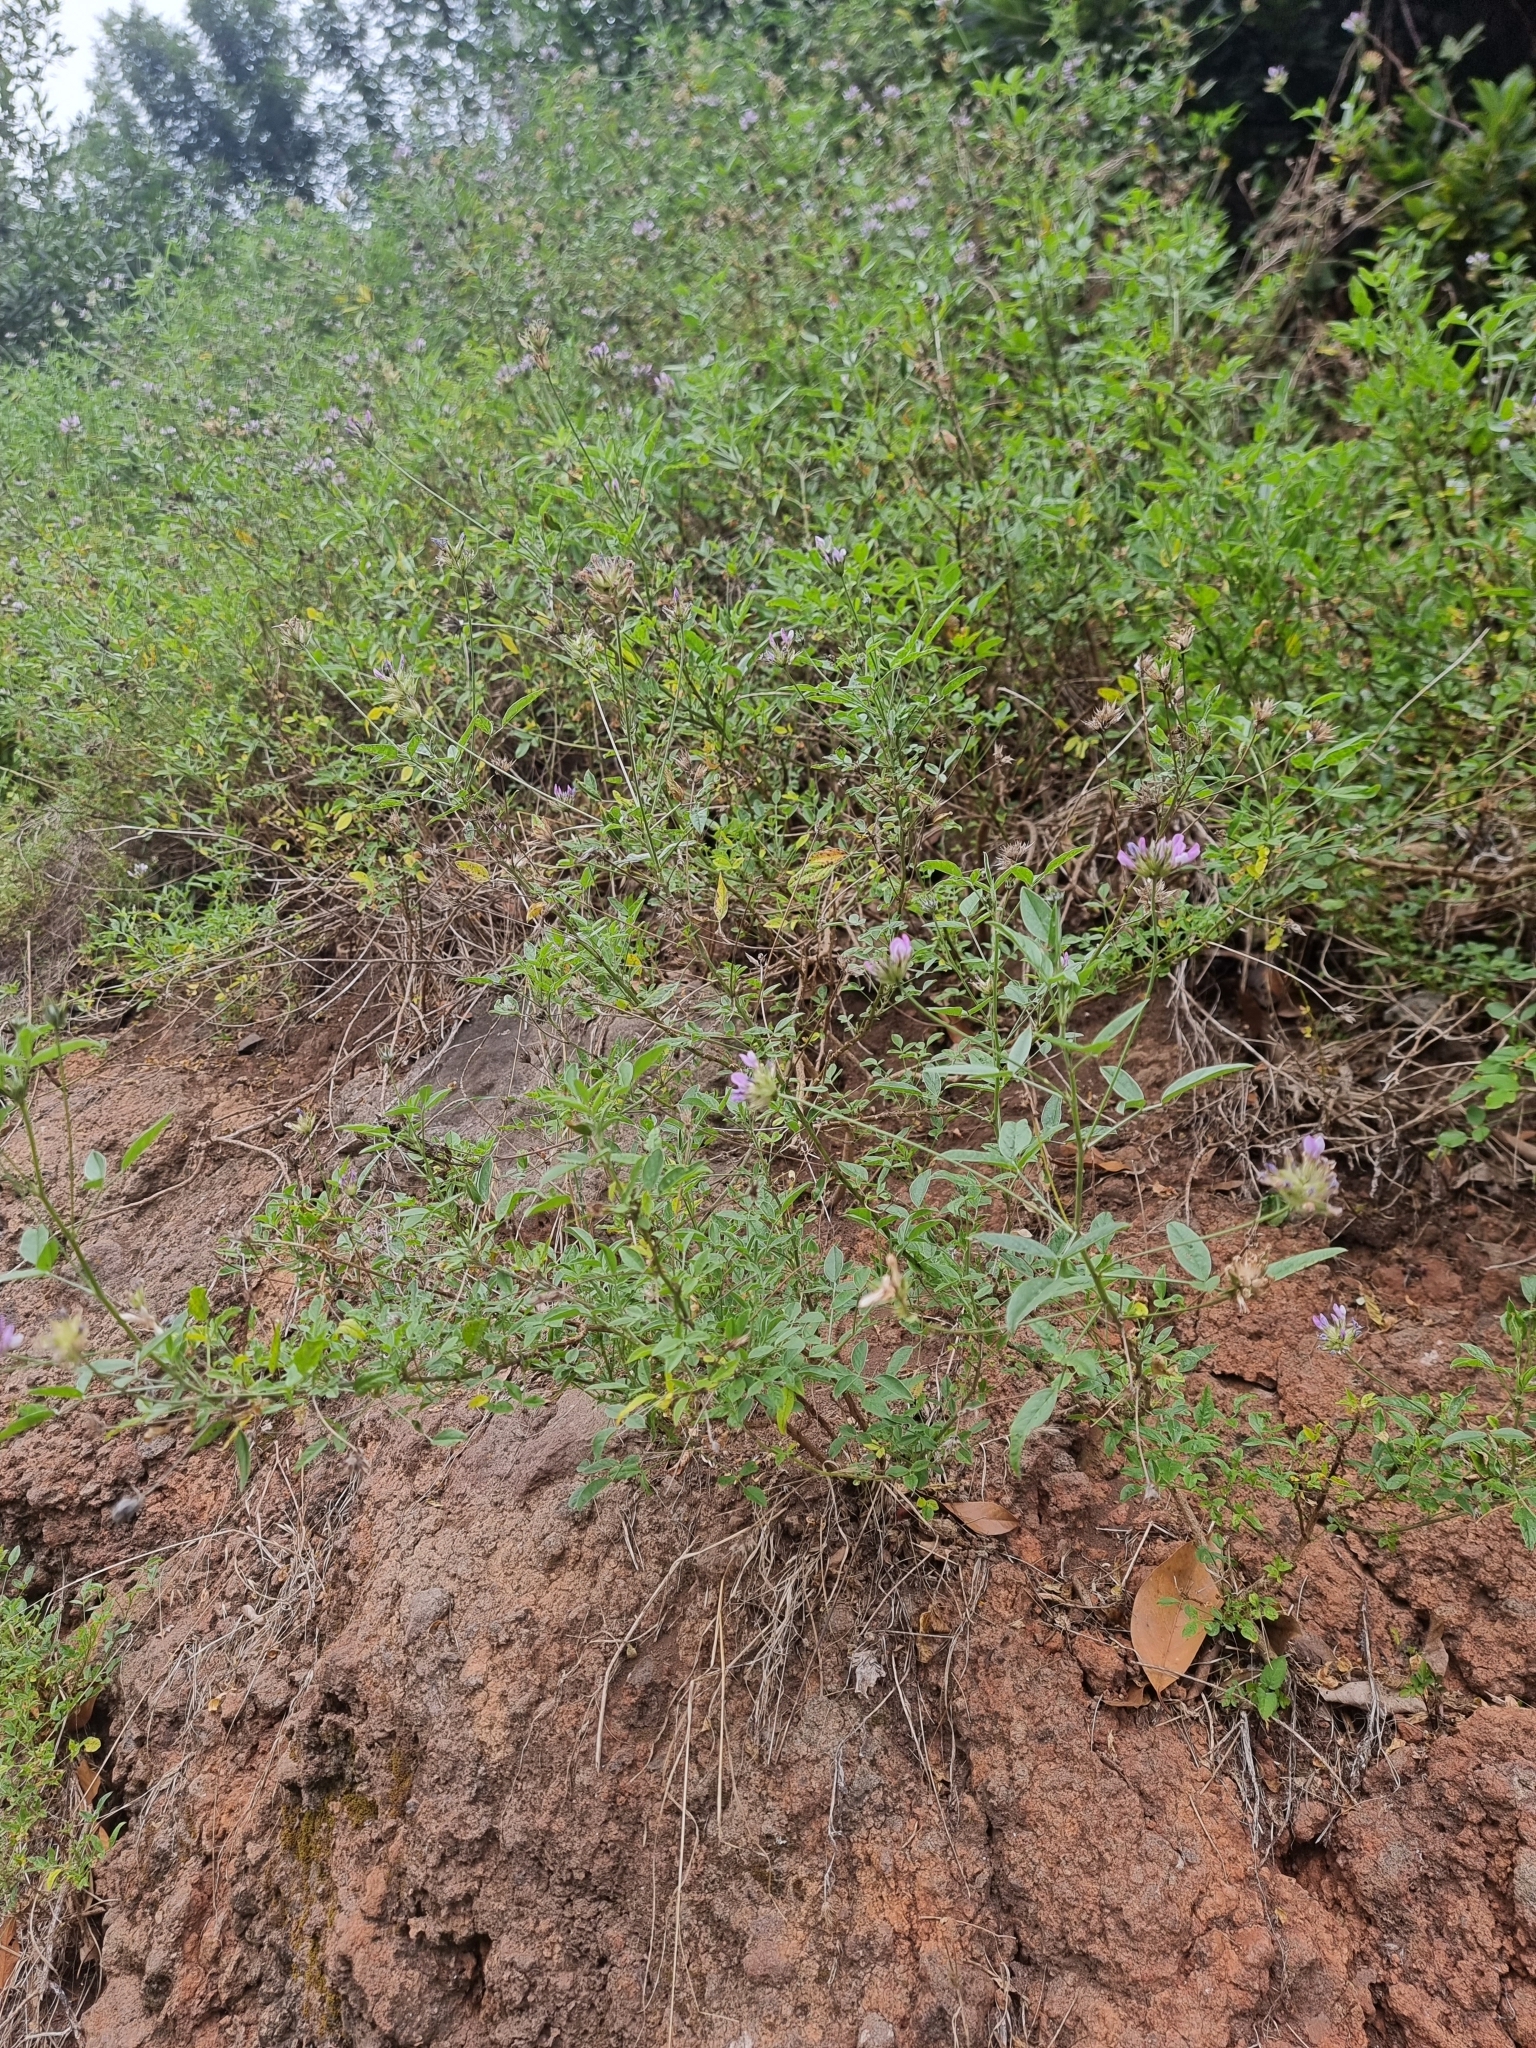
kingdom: Plantae
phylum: Tracheophyta
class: Magnoliopsida
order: Fabales
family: Fabaceae
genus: Bituminaria
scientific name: Bituminaria bituminosa
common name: Arabian pea
